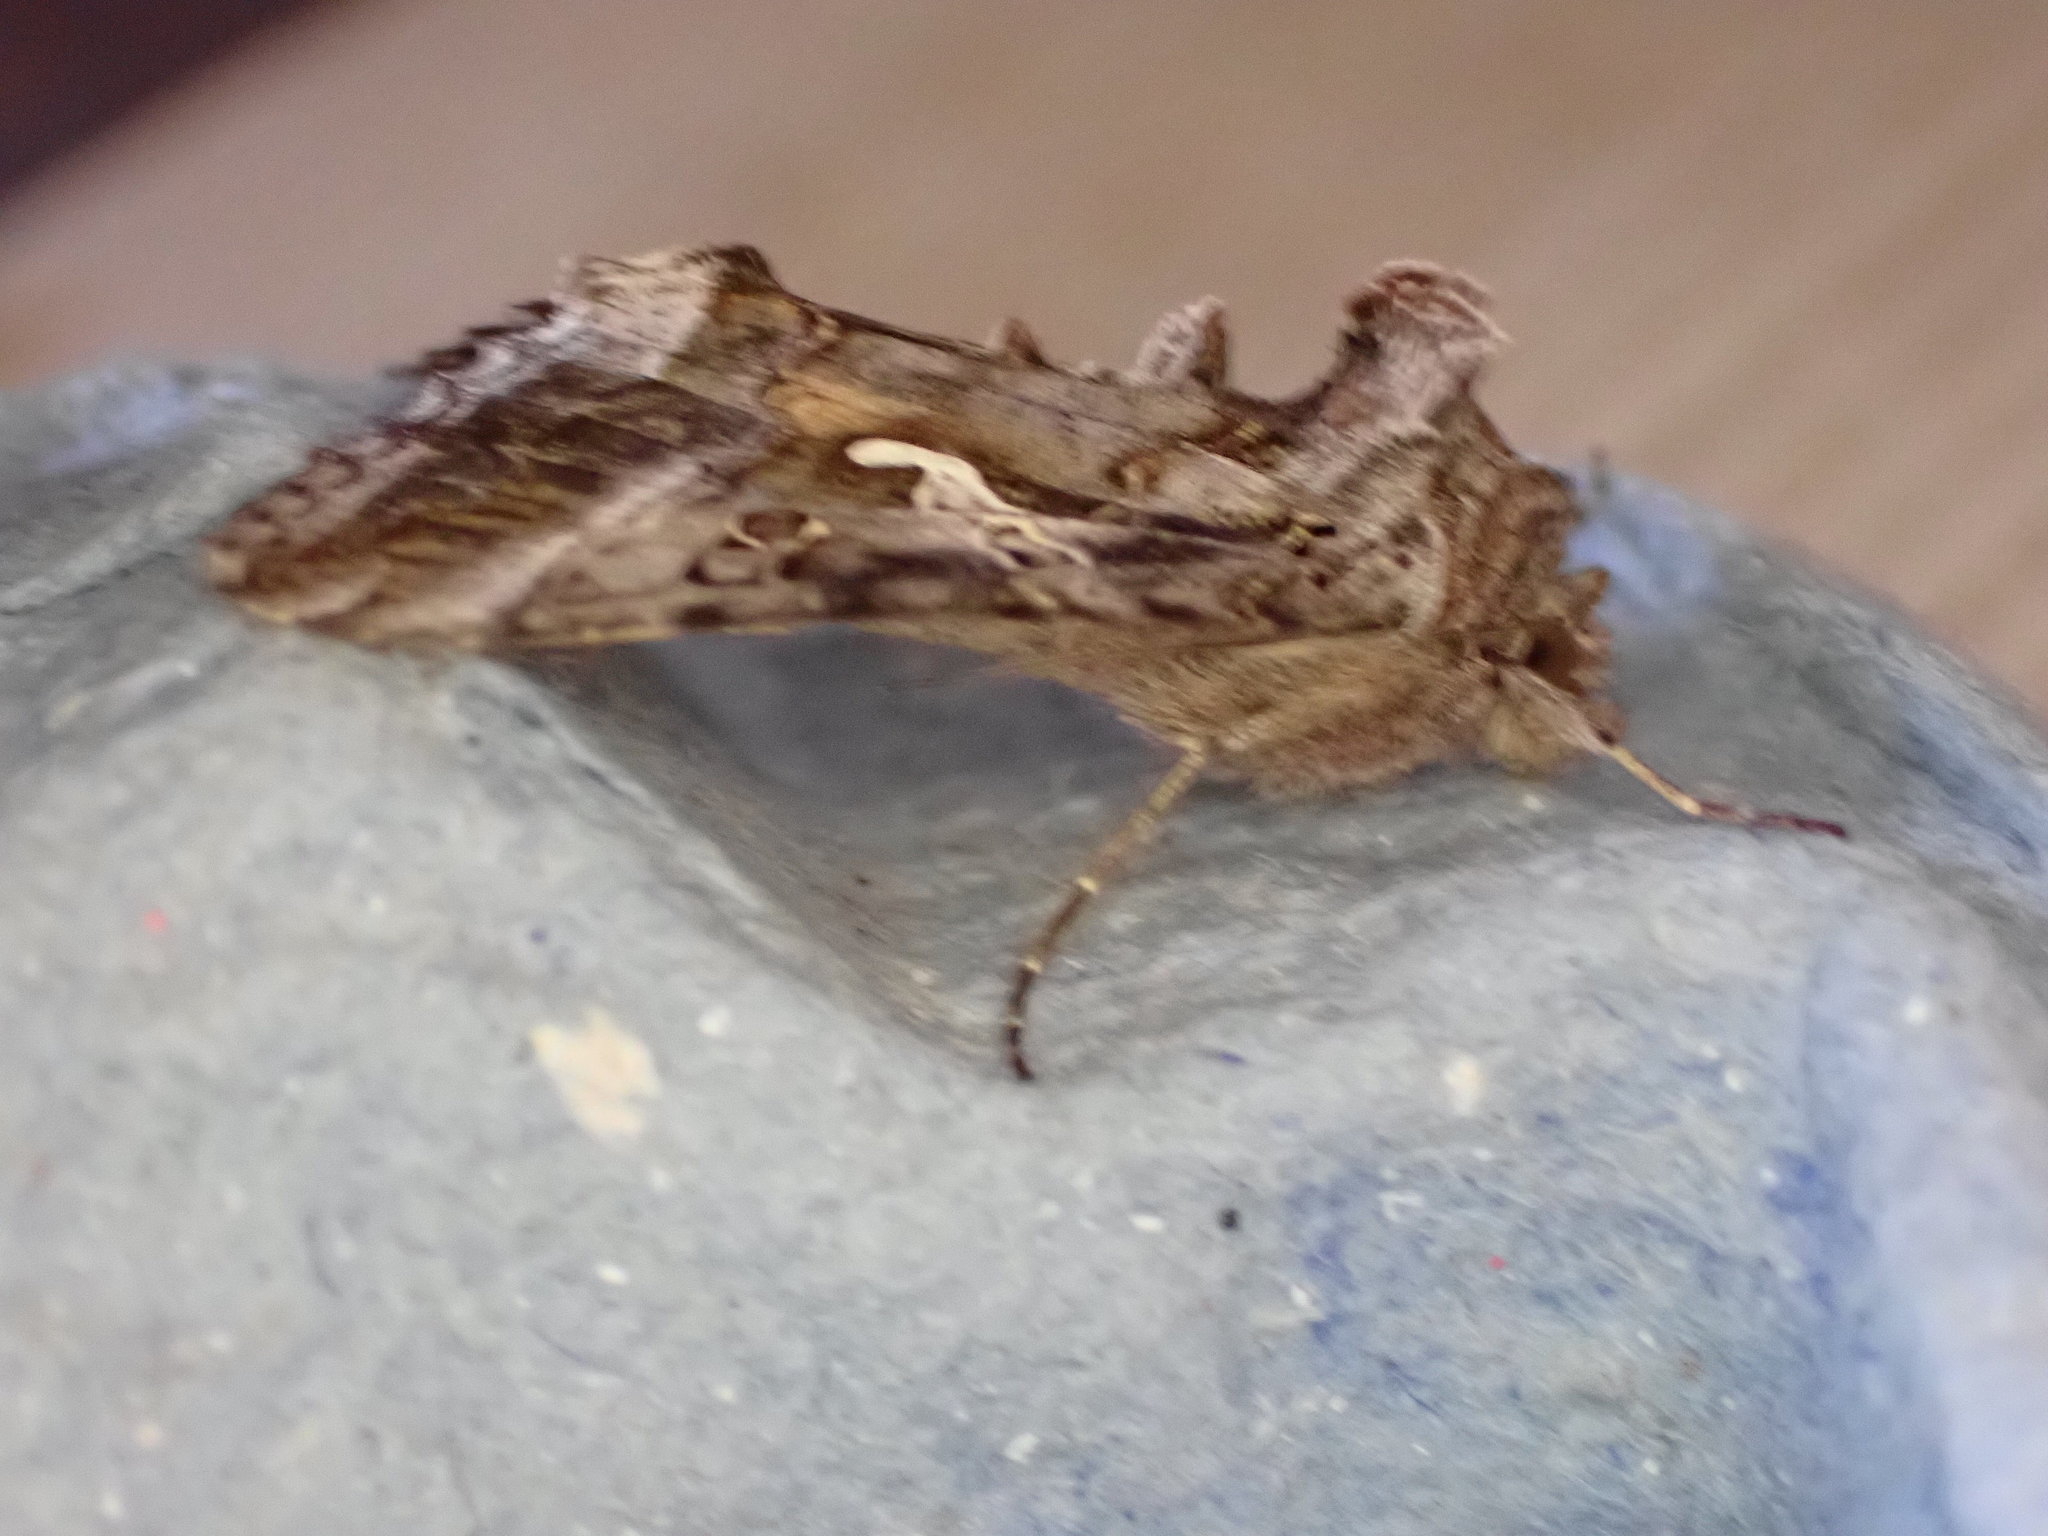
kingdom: Animalia
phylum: Arthropoda
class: Insecta
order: Lepidoptera
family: Noctuidae
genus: Autographa
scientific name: Autographa gamma
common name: Silver y
